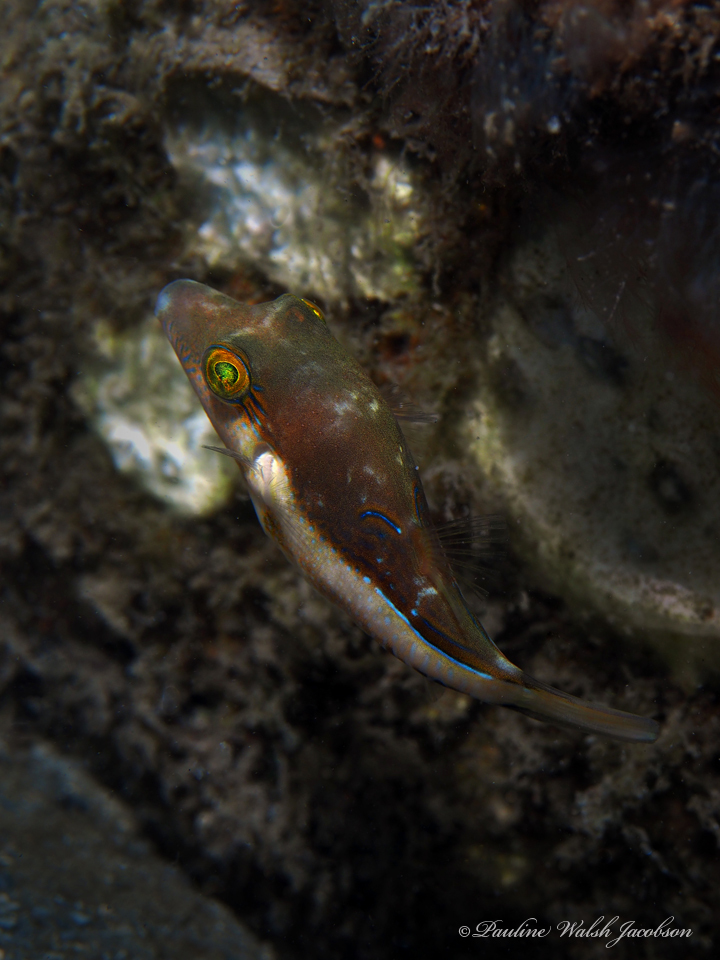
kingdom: Animalia
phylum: Chordata
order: Tetraodontiformes
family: Tetraodontidae
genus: Canthigaster
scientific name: Canthigaster rostrata
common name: Caribbean sharpnose-puffer
